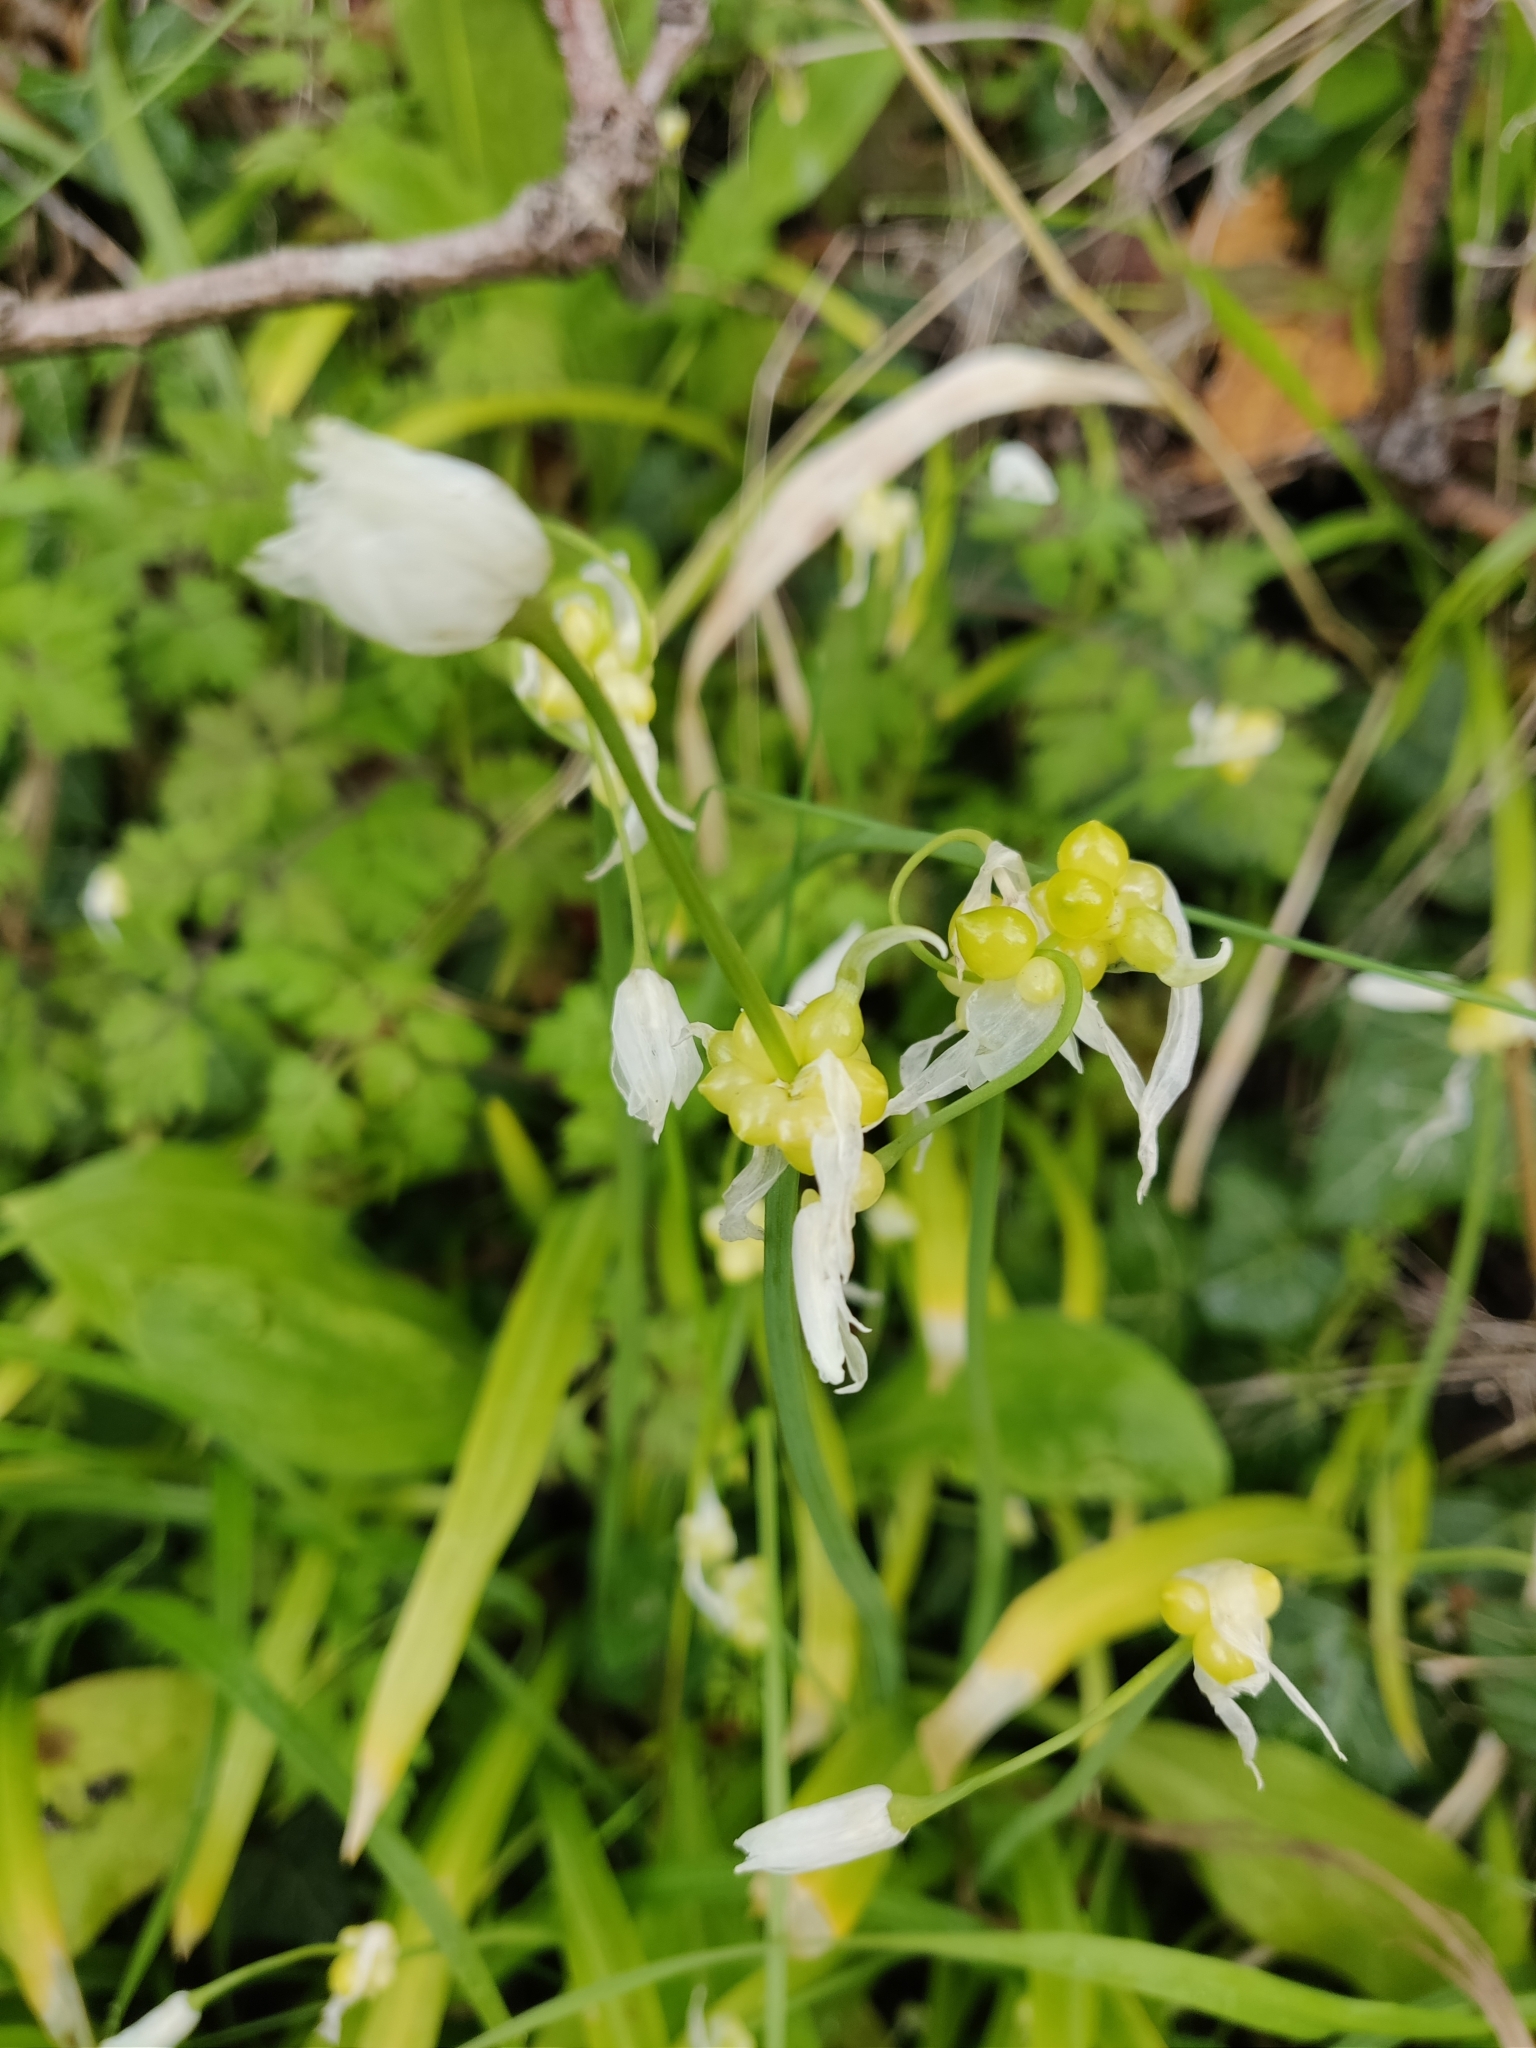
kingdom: Plantae
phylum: Tracheophyta
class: Liliopsida
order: Asparagales
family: Amaryllidaceae
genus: Allium
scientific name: Allium paradoxum
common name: Few-flowered garlic
